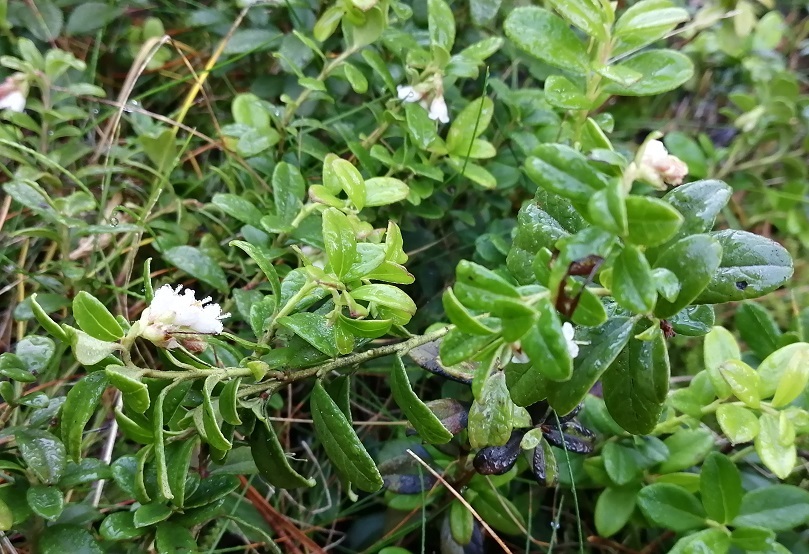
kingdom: Plantae
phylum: Tracheophyta
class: Magnoliopsida
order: Ericales
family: Ericaceae
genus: Vaccinium
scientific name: Vaccinium vitis-idaea
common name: Cowberry
